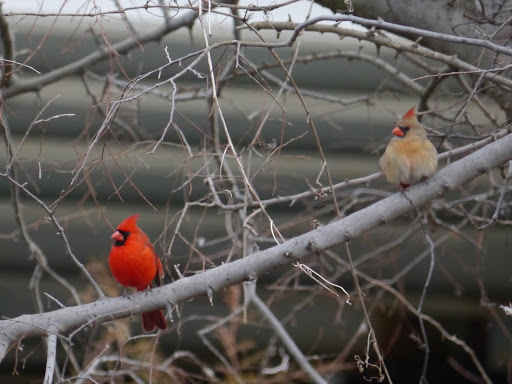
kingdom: Animalia
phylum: Chordata
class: Aves
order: Passeriformes
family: Cardinalidae
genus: Cardinalis
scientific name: Cardinalis cardinalis
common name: Northern cardinal
